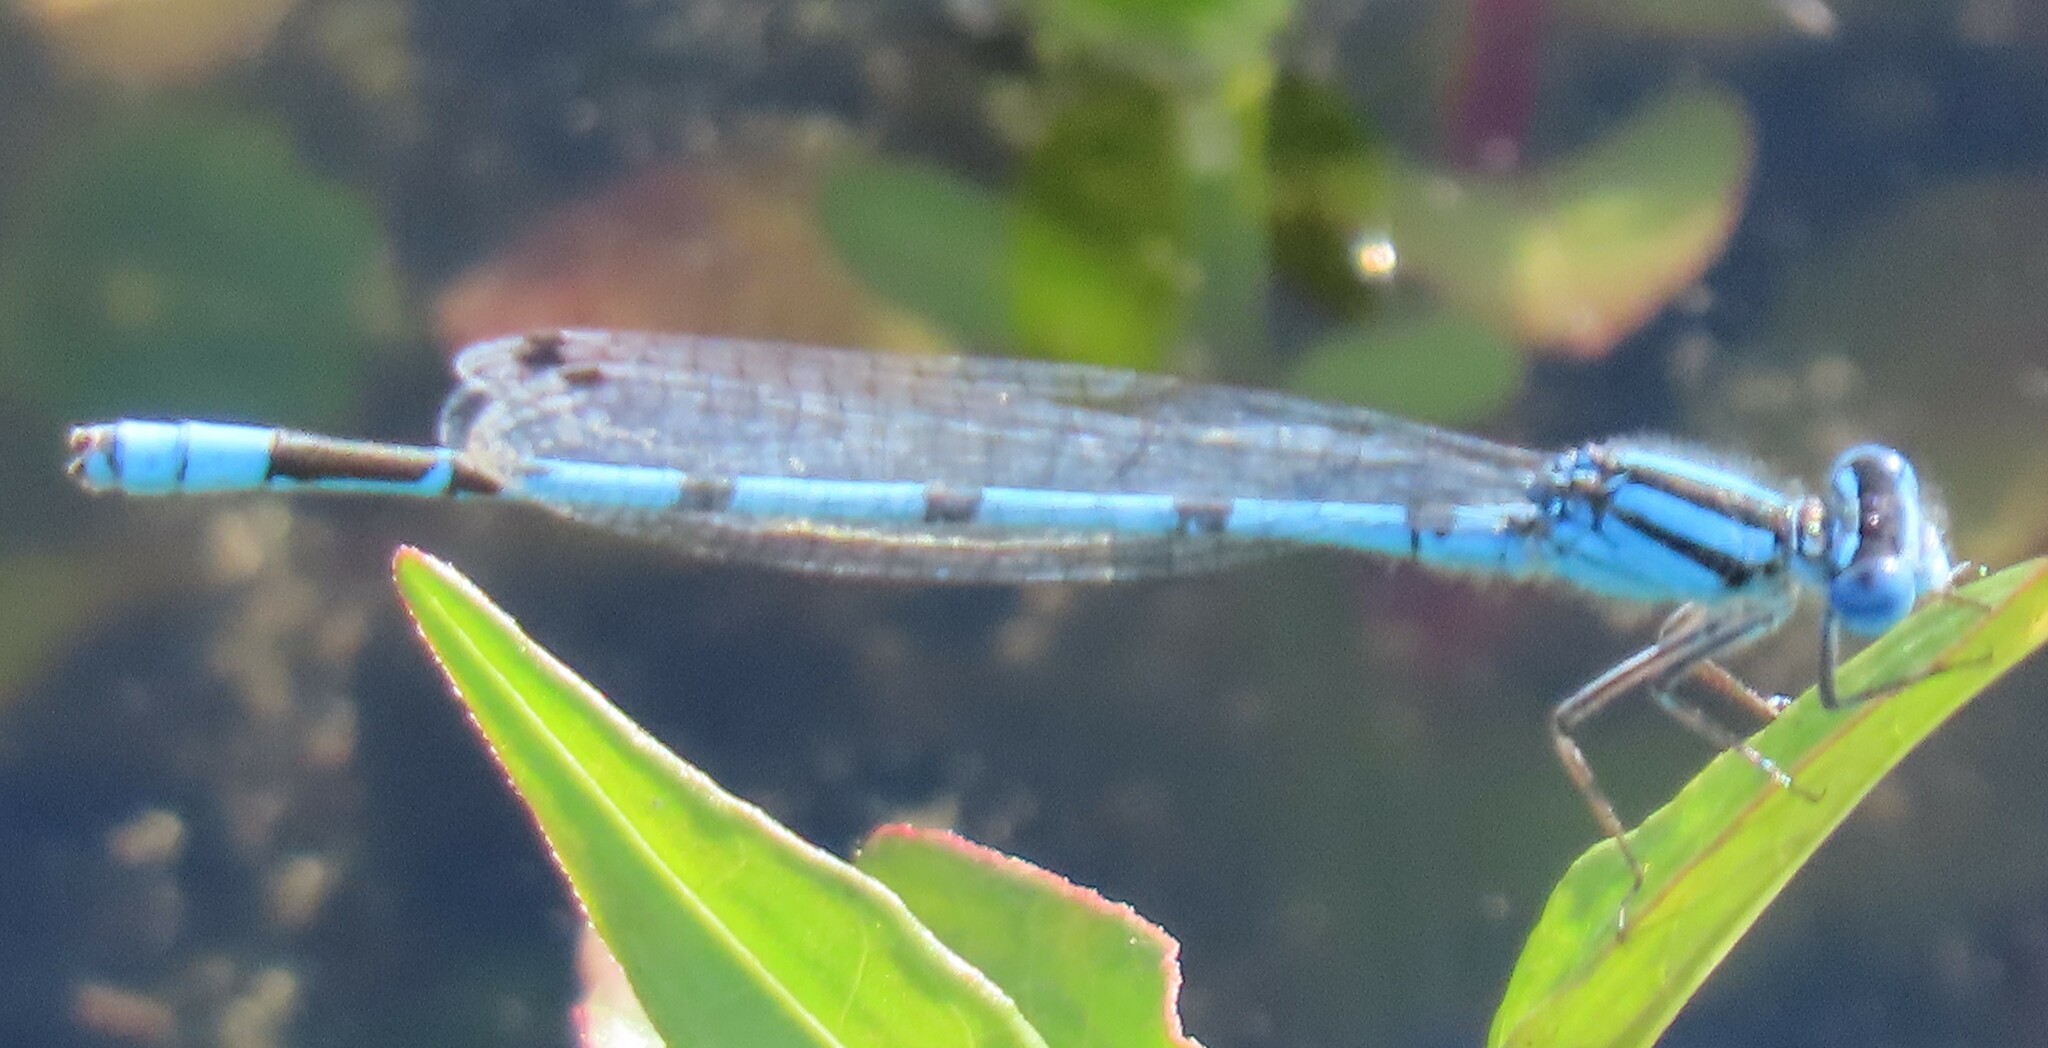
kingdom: Animalia
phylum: Arthropoda
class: Insecta
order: Odonata
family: Coenagrionidae
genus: Enallagma
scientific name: Enallagma doubledayi
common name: Atlantic bluet
